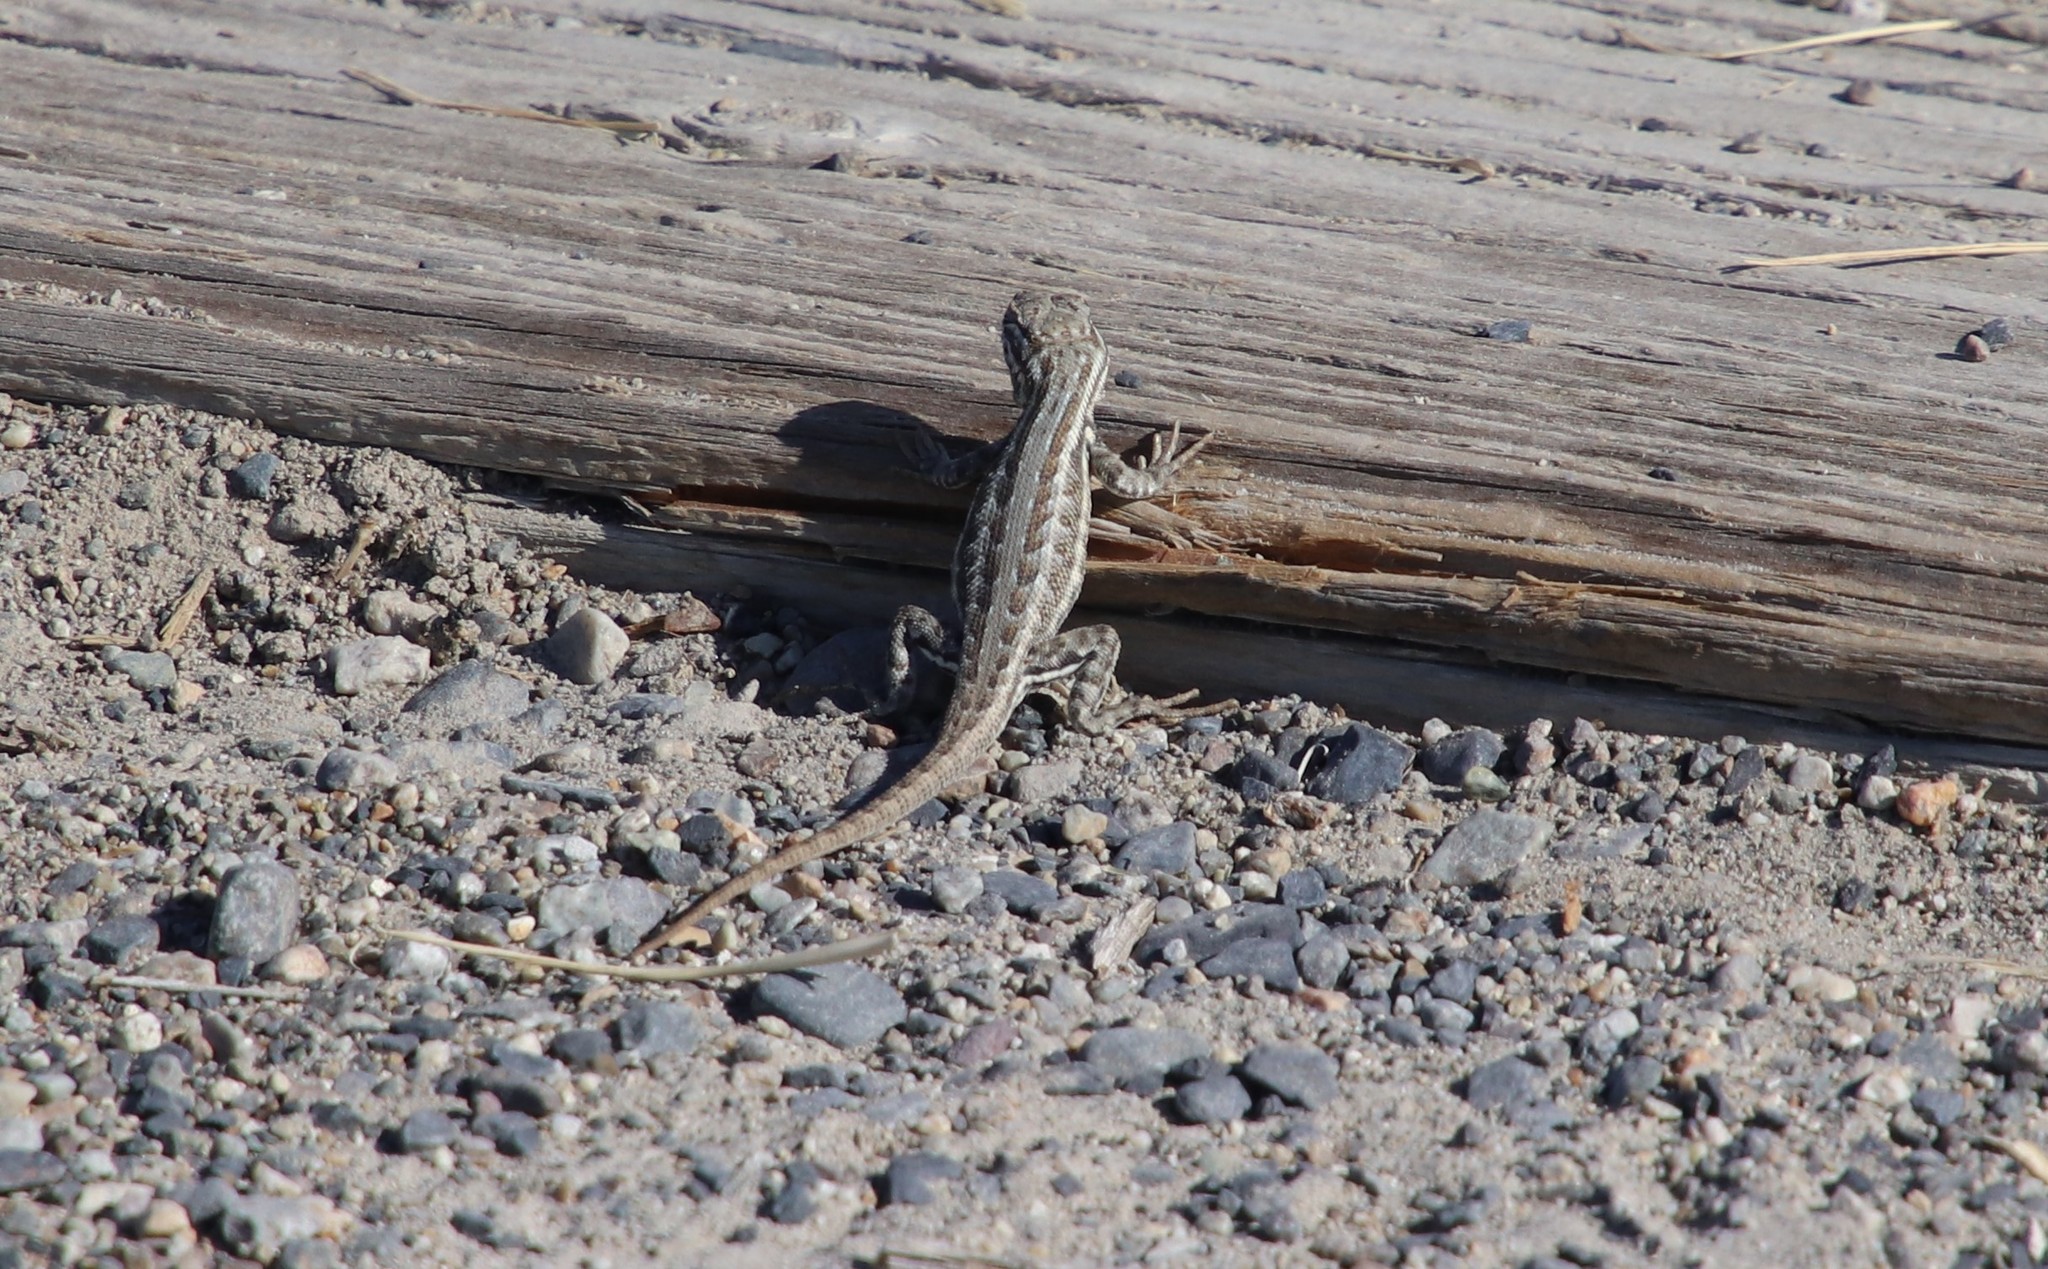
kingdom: Animalia
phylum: Chordata
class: Squamata
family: Phrynosomatidae
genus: Sceloporus
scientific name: Sceloporus graciosus
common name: Sagebrush lizard
